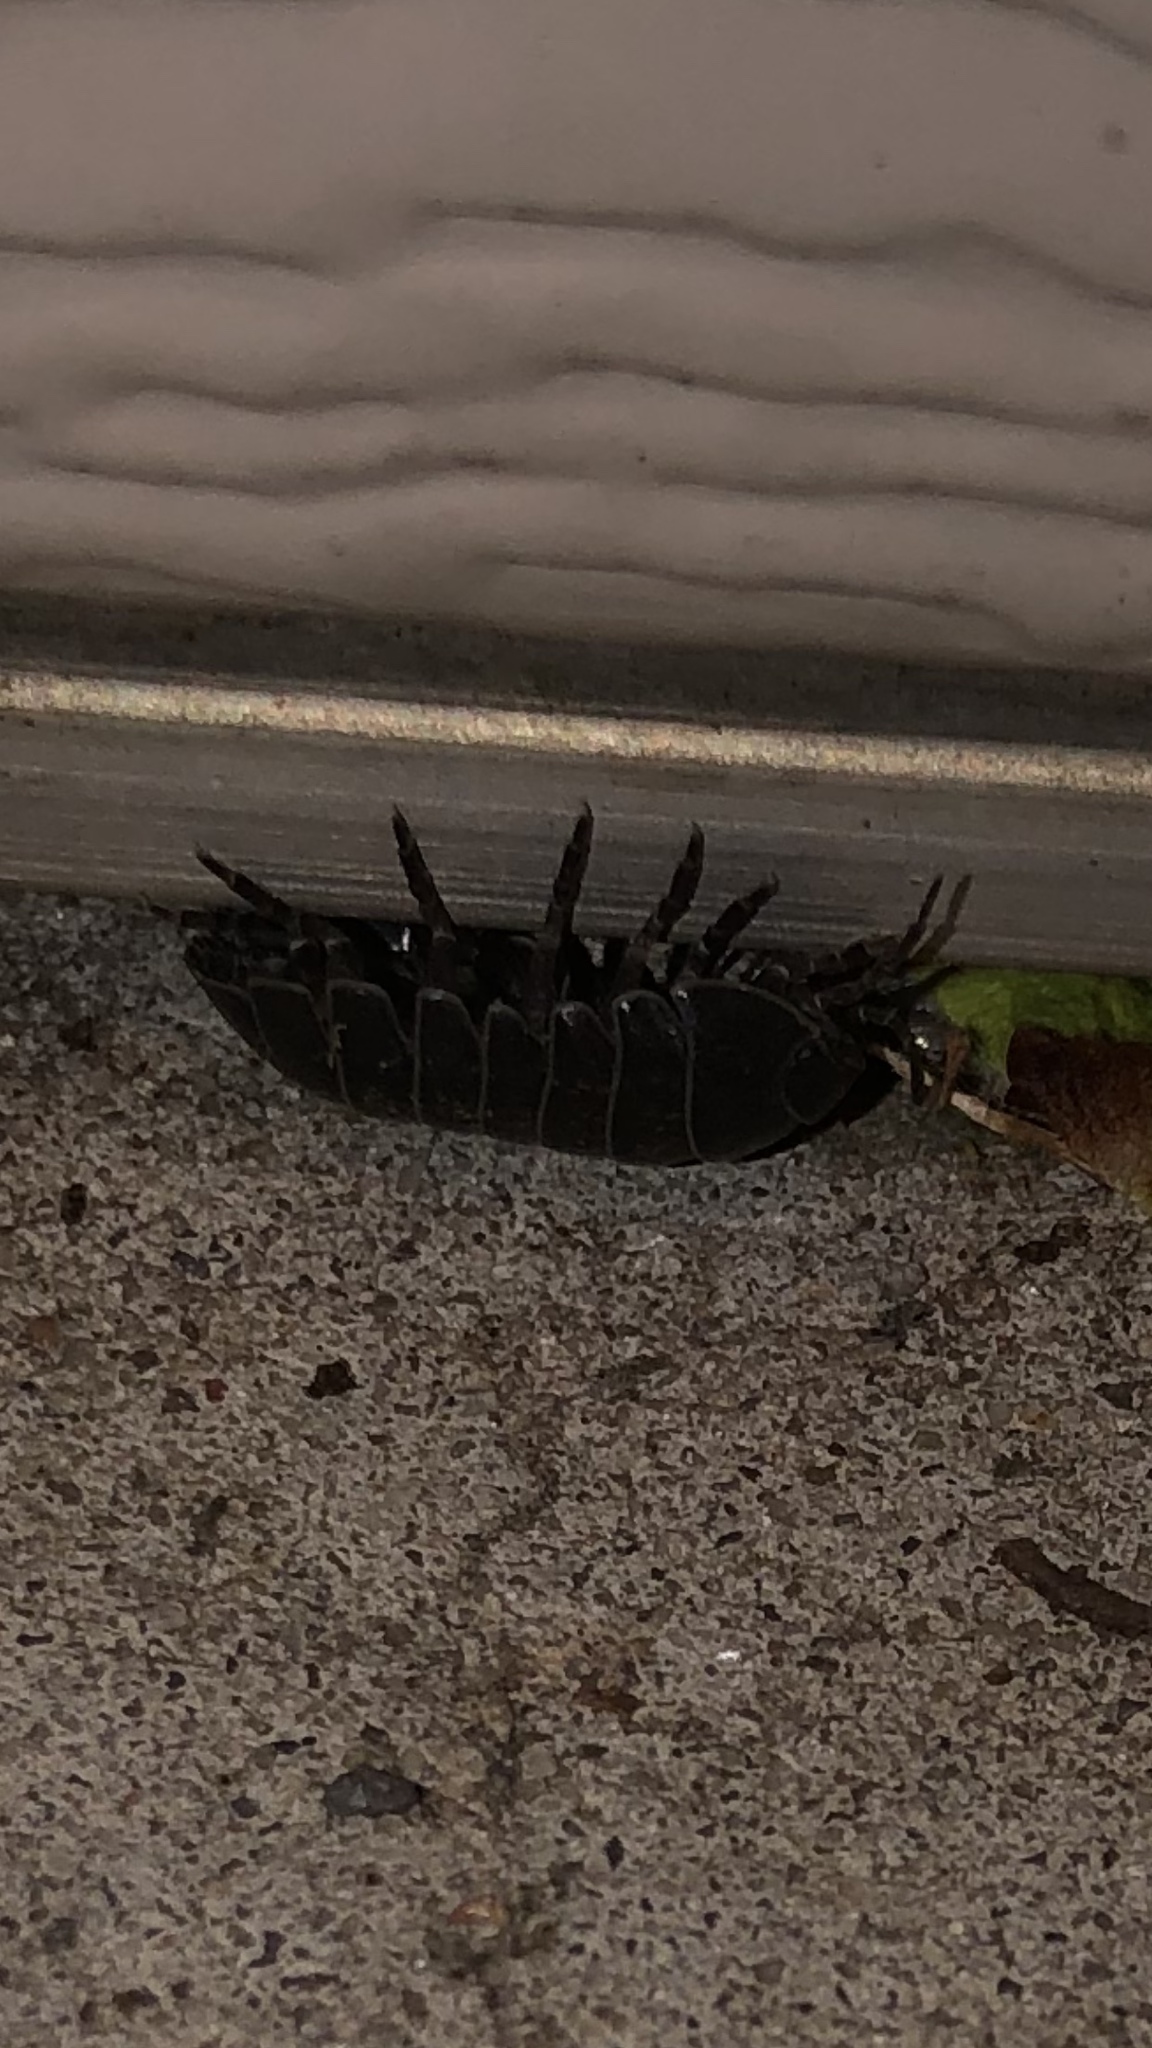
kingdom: Animalia
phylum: Arthropoda
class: Malacostraca
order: Isopoda
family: Armadillidiidae
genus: Armadillidium
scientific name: Armadillidium vulgare
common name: Common pill woodlouse
